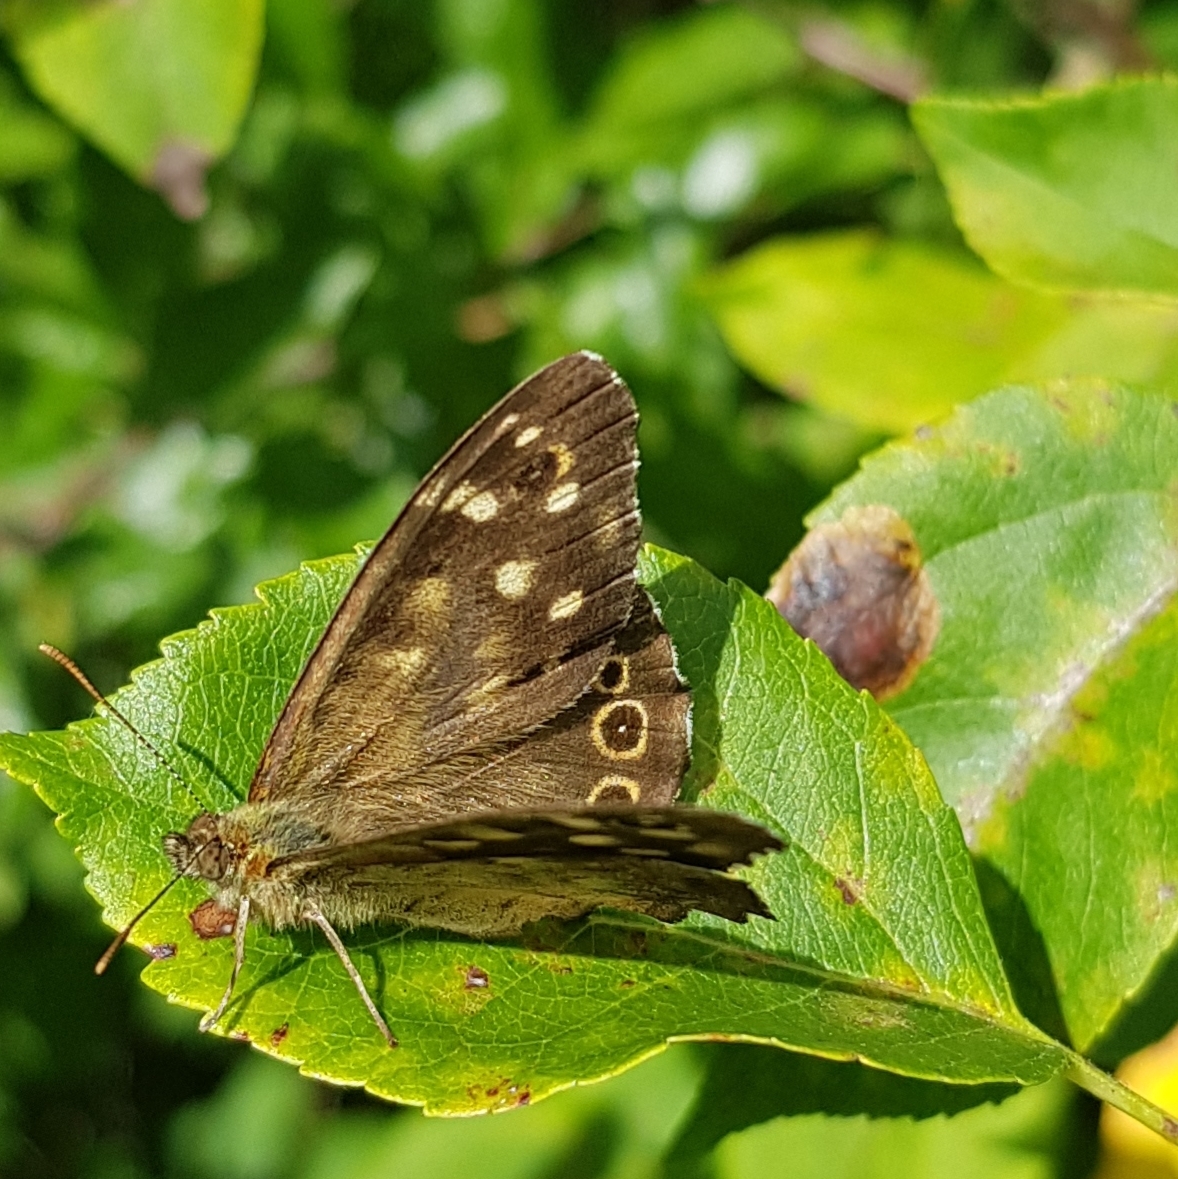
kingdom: Animalia
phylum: Arthropoda
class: Insecta
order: Lepidoptera
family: Nymphalidae
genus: Pararge
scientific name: Pararge aegeria
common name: Speckled wood
